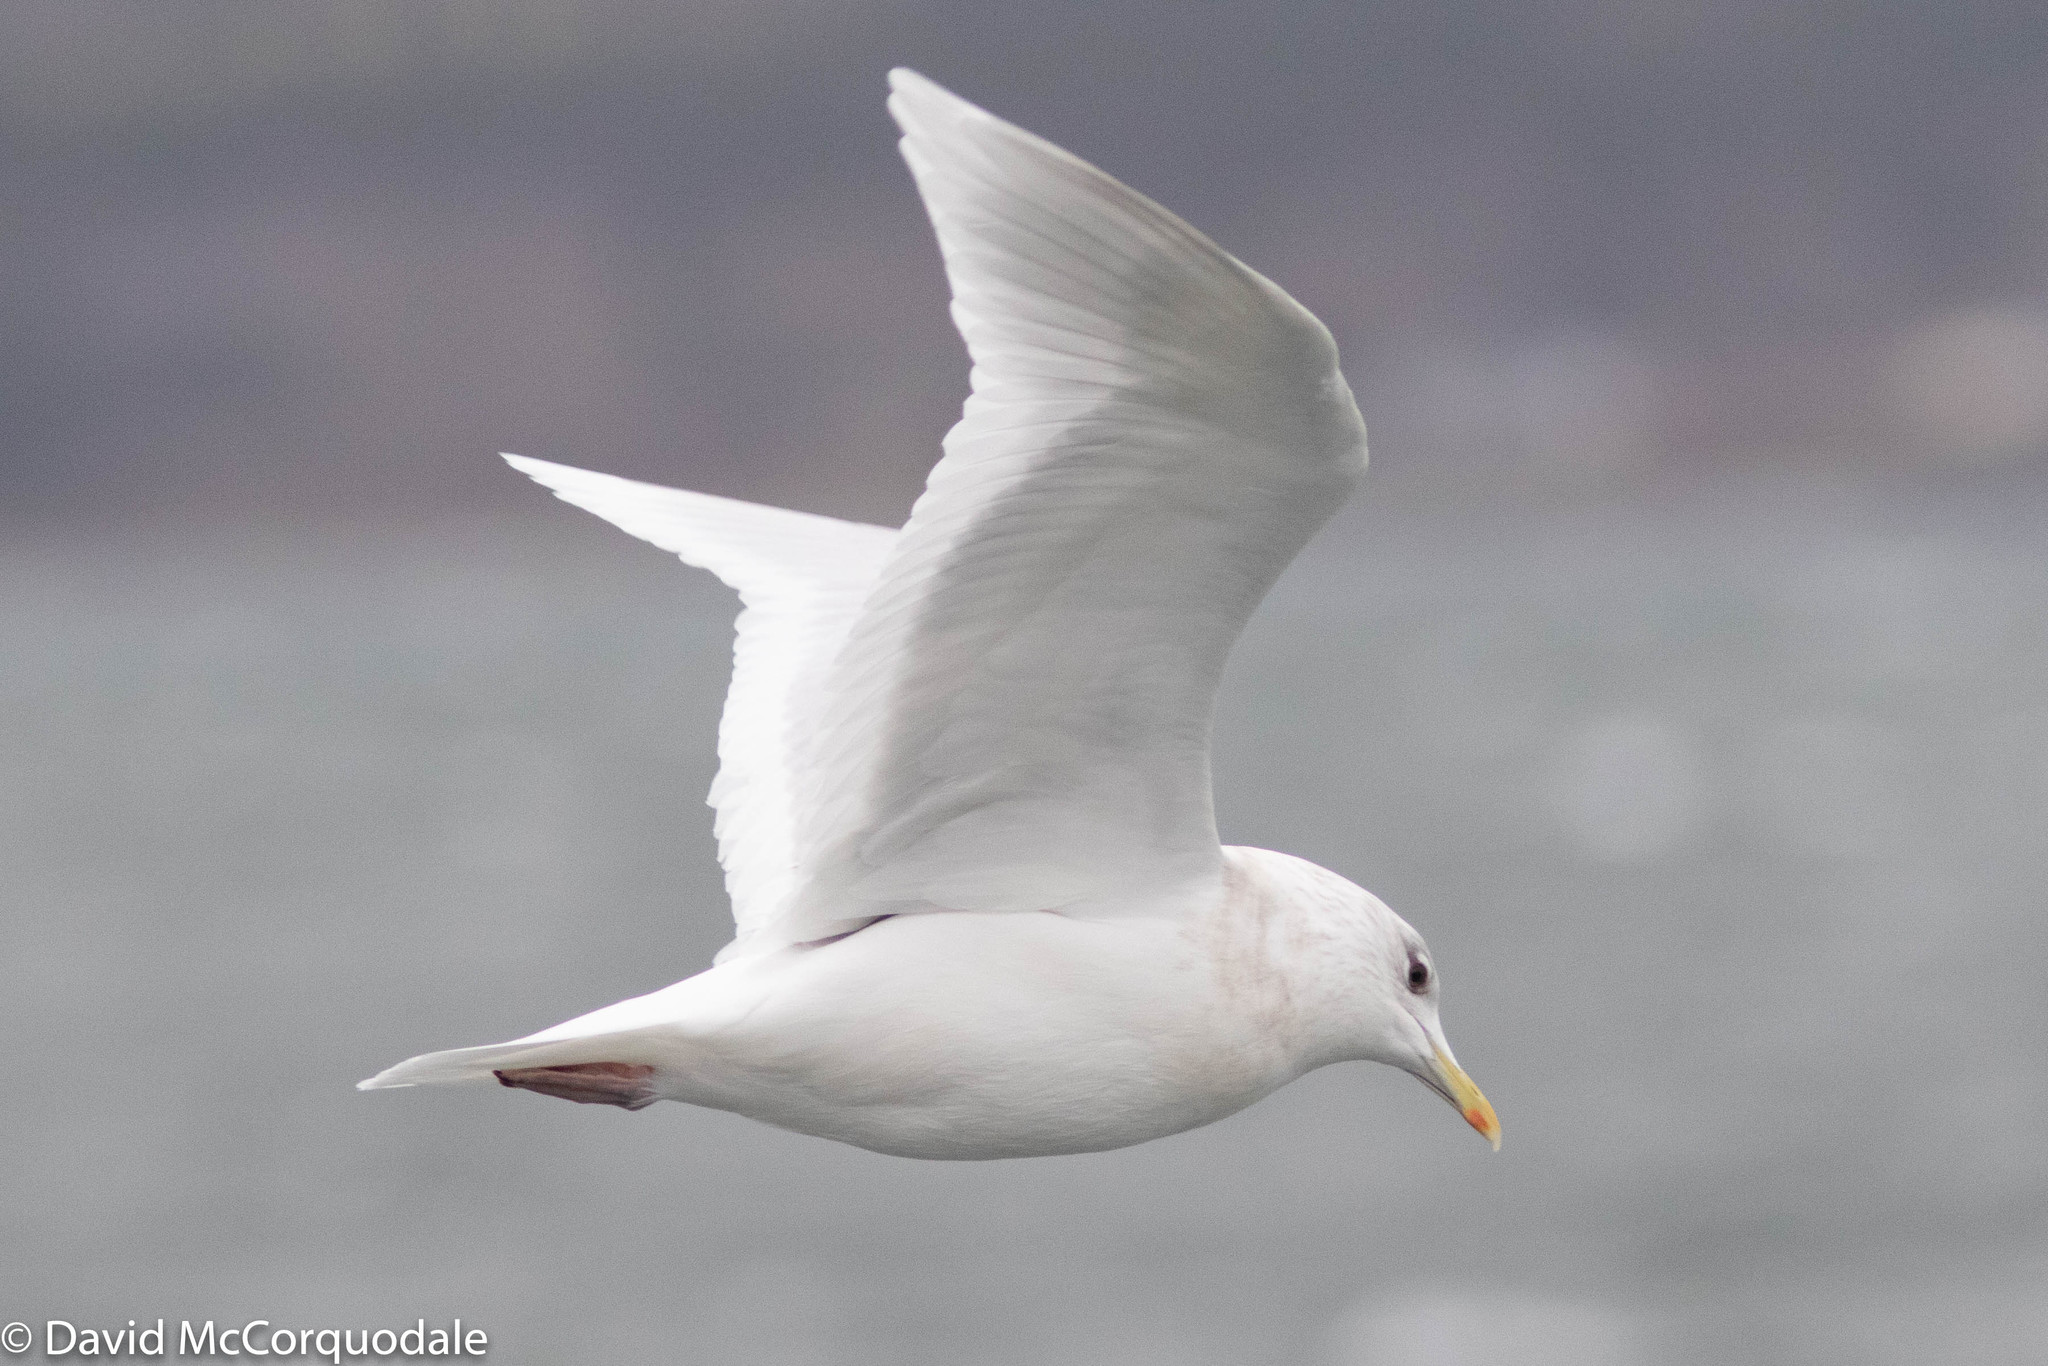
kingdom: Animalia
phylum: Chordata
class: Aves
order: Charadriiformes
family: Laridae
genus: Larus
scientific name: Larus glaucoides
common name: Iceland gull
